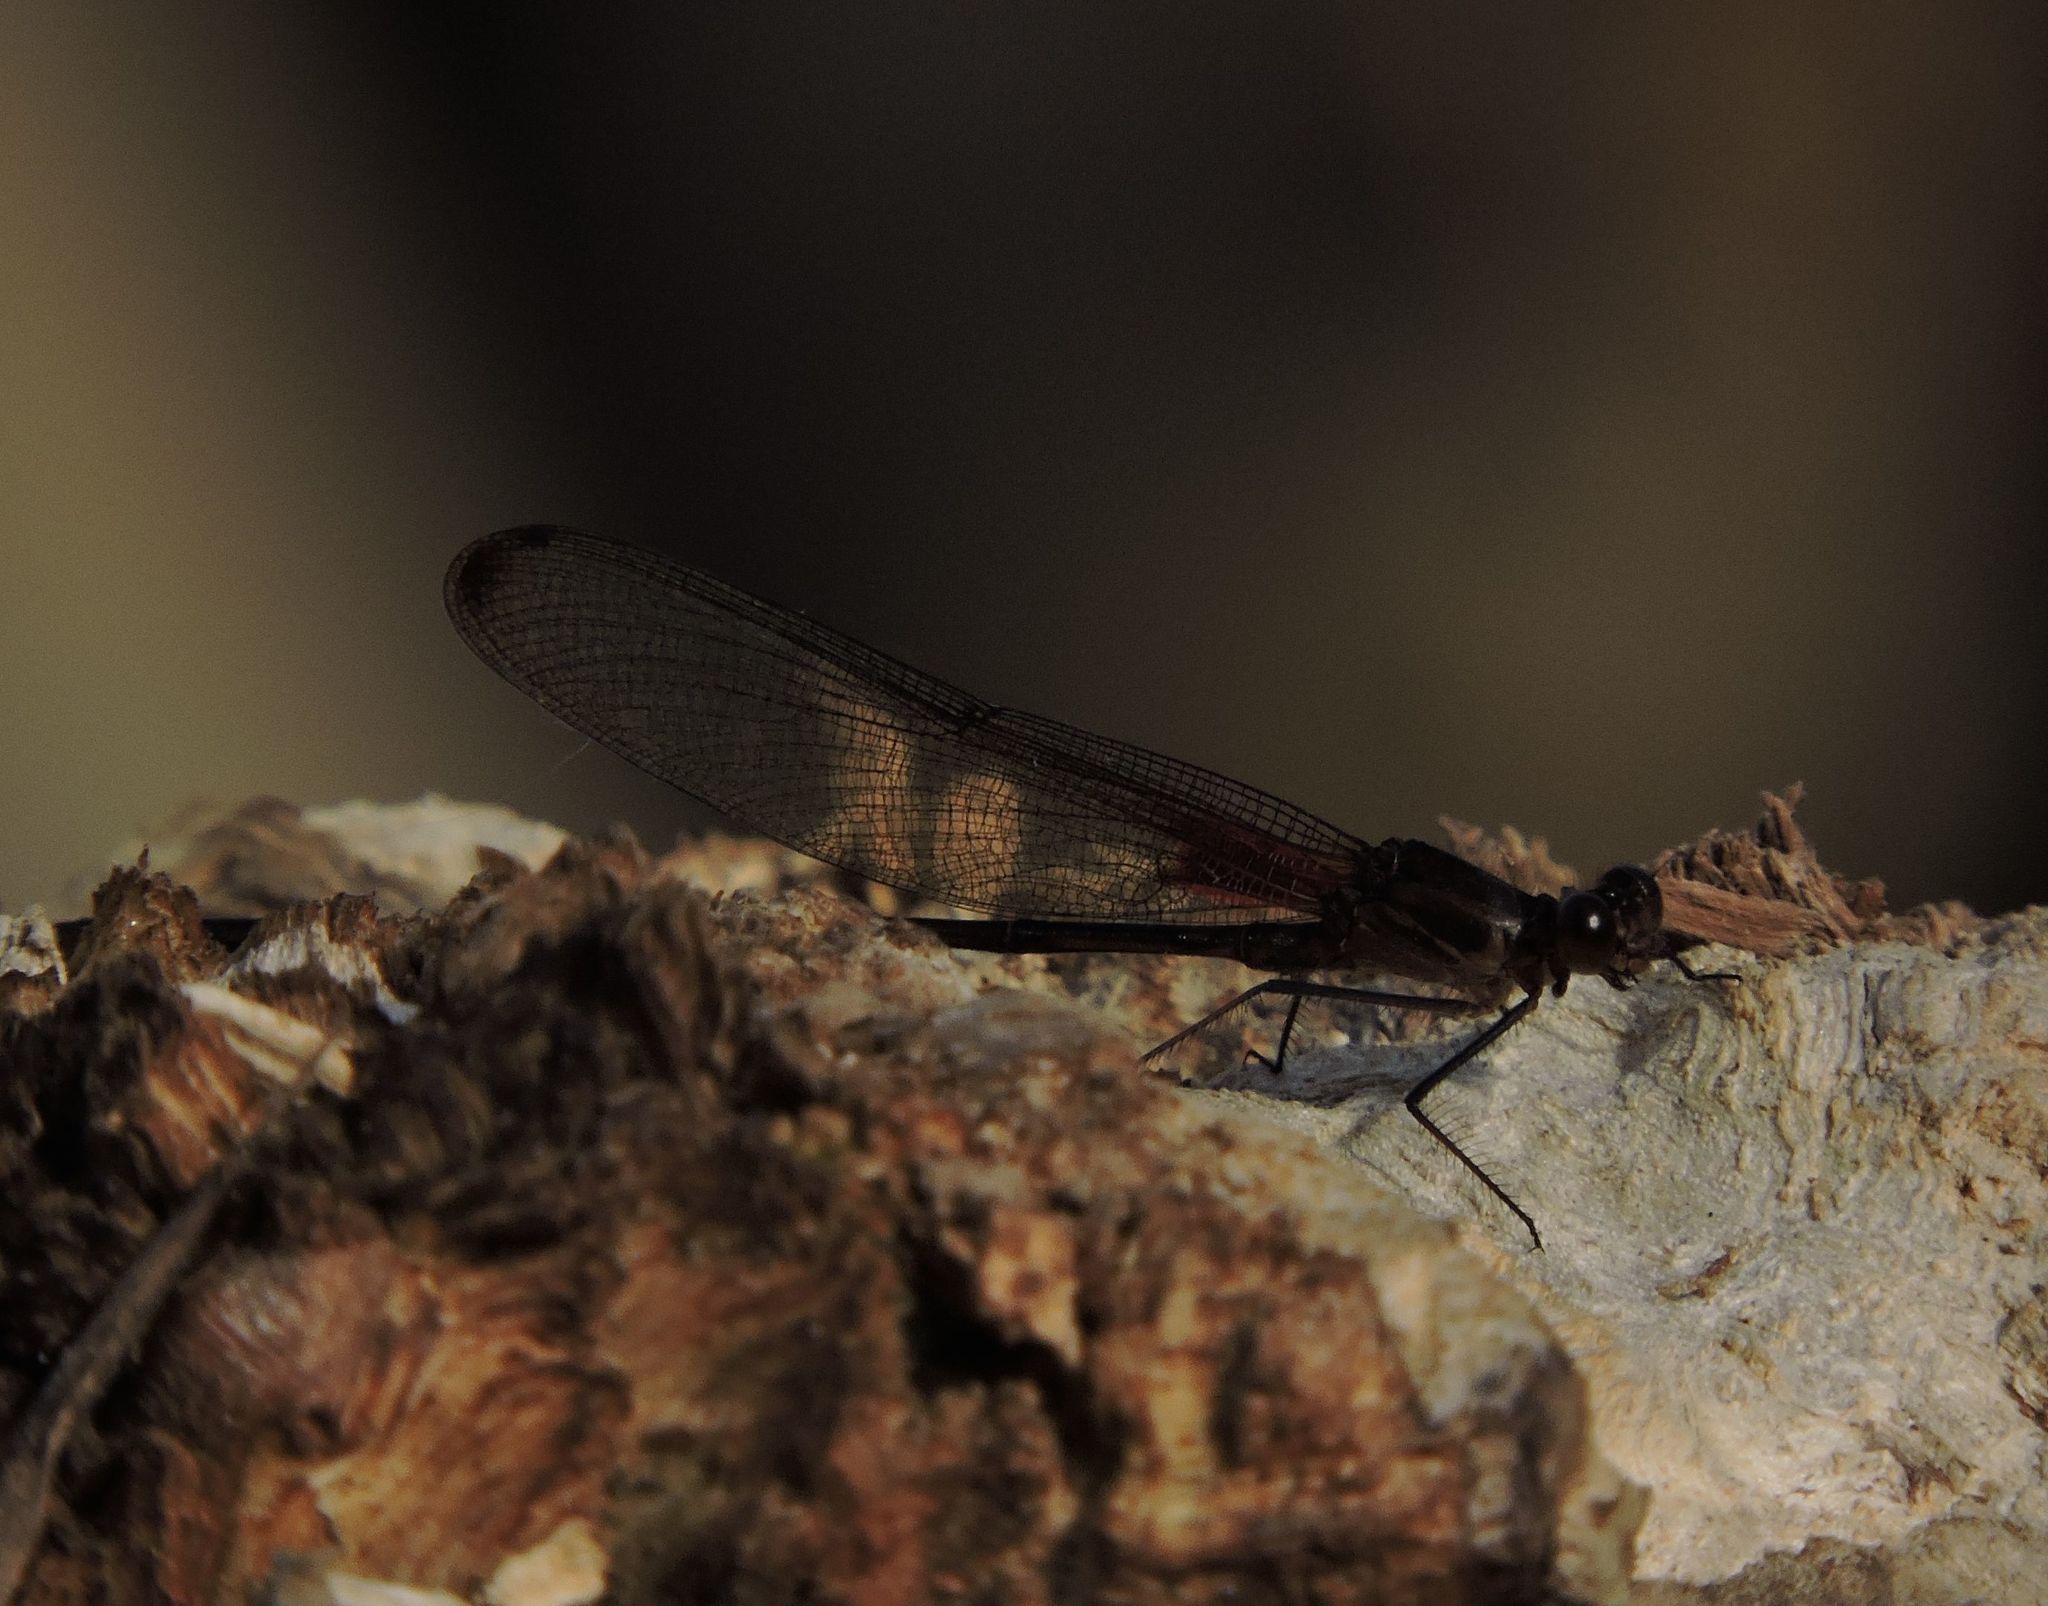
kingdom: Animalia
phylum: Arthropoda
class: Insecta
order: Odonata
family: Calopterygidae
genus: Hetaerina
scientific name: Hetaerina titia
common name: Smoky rubyspot
